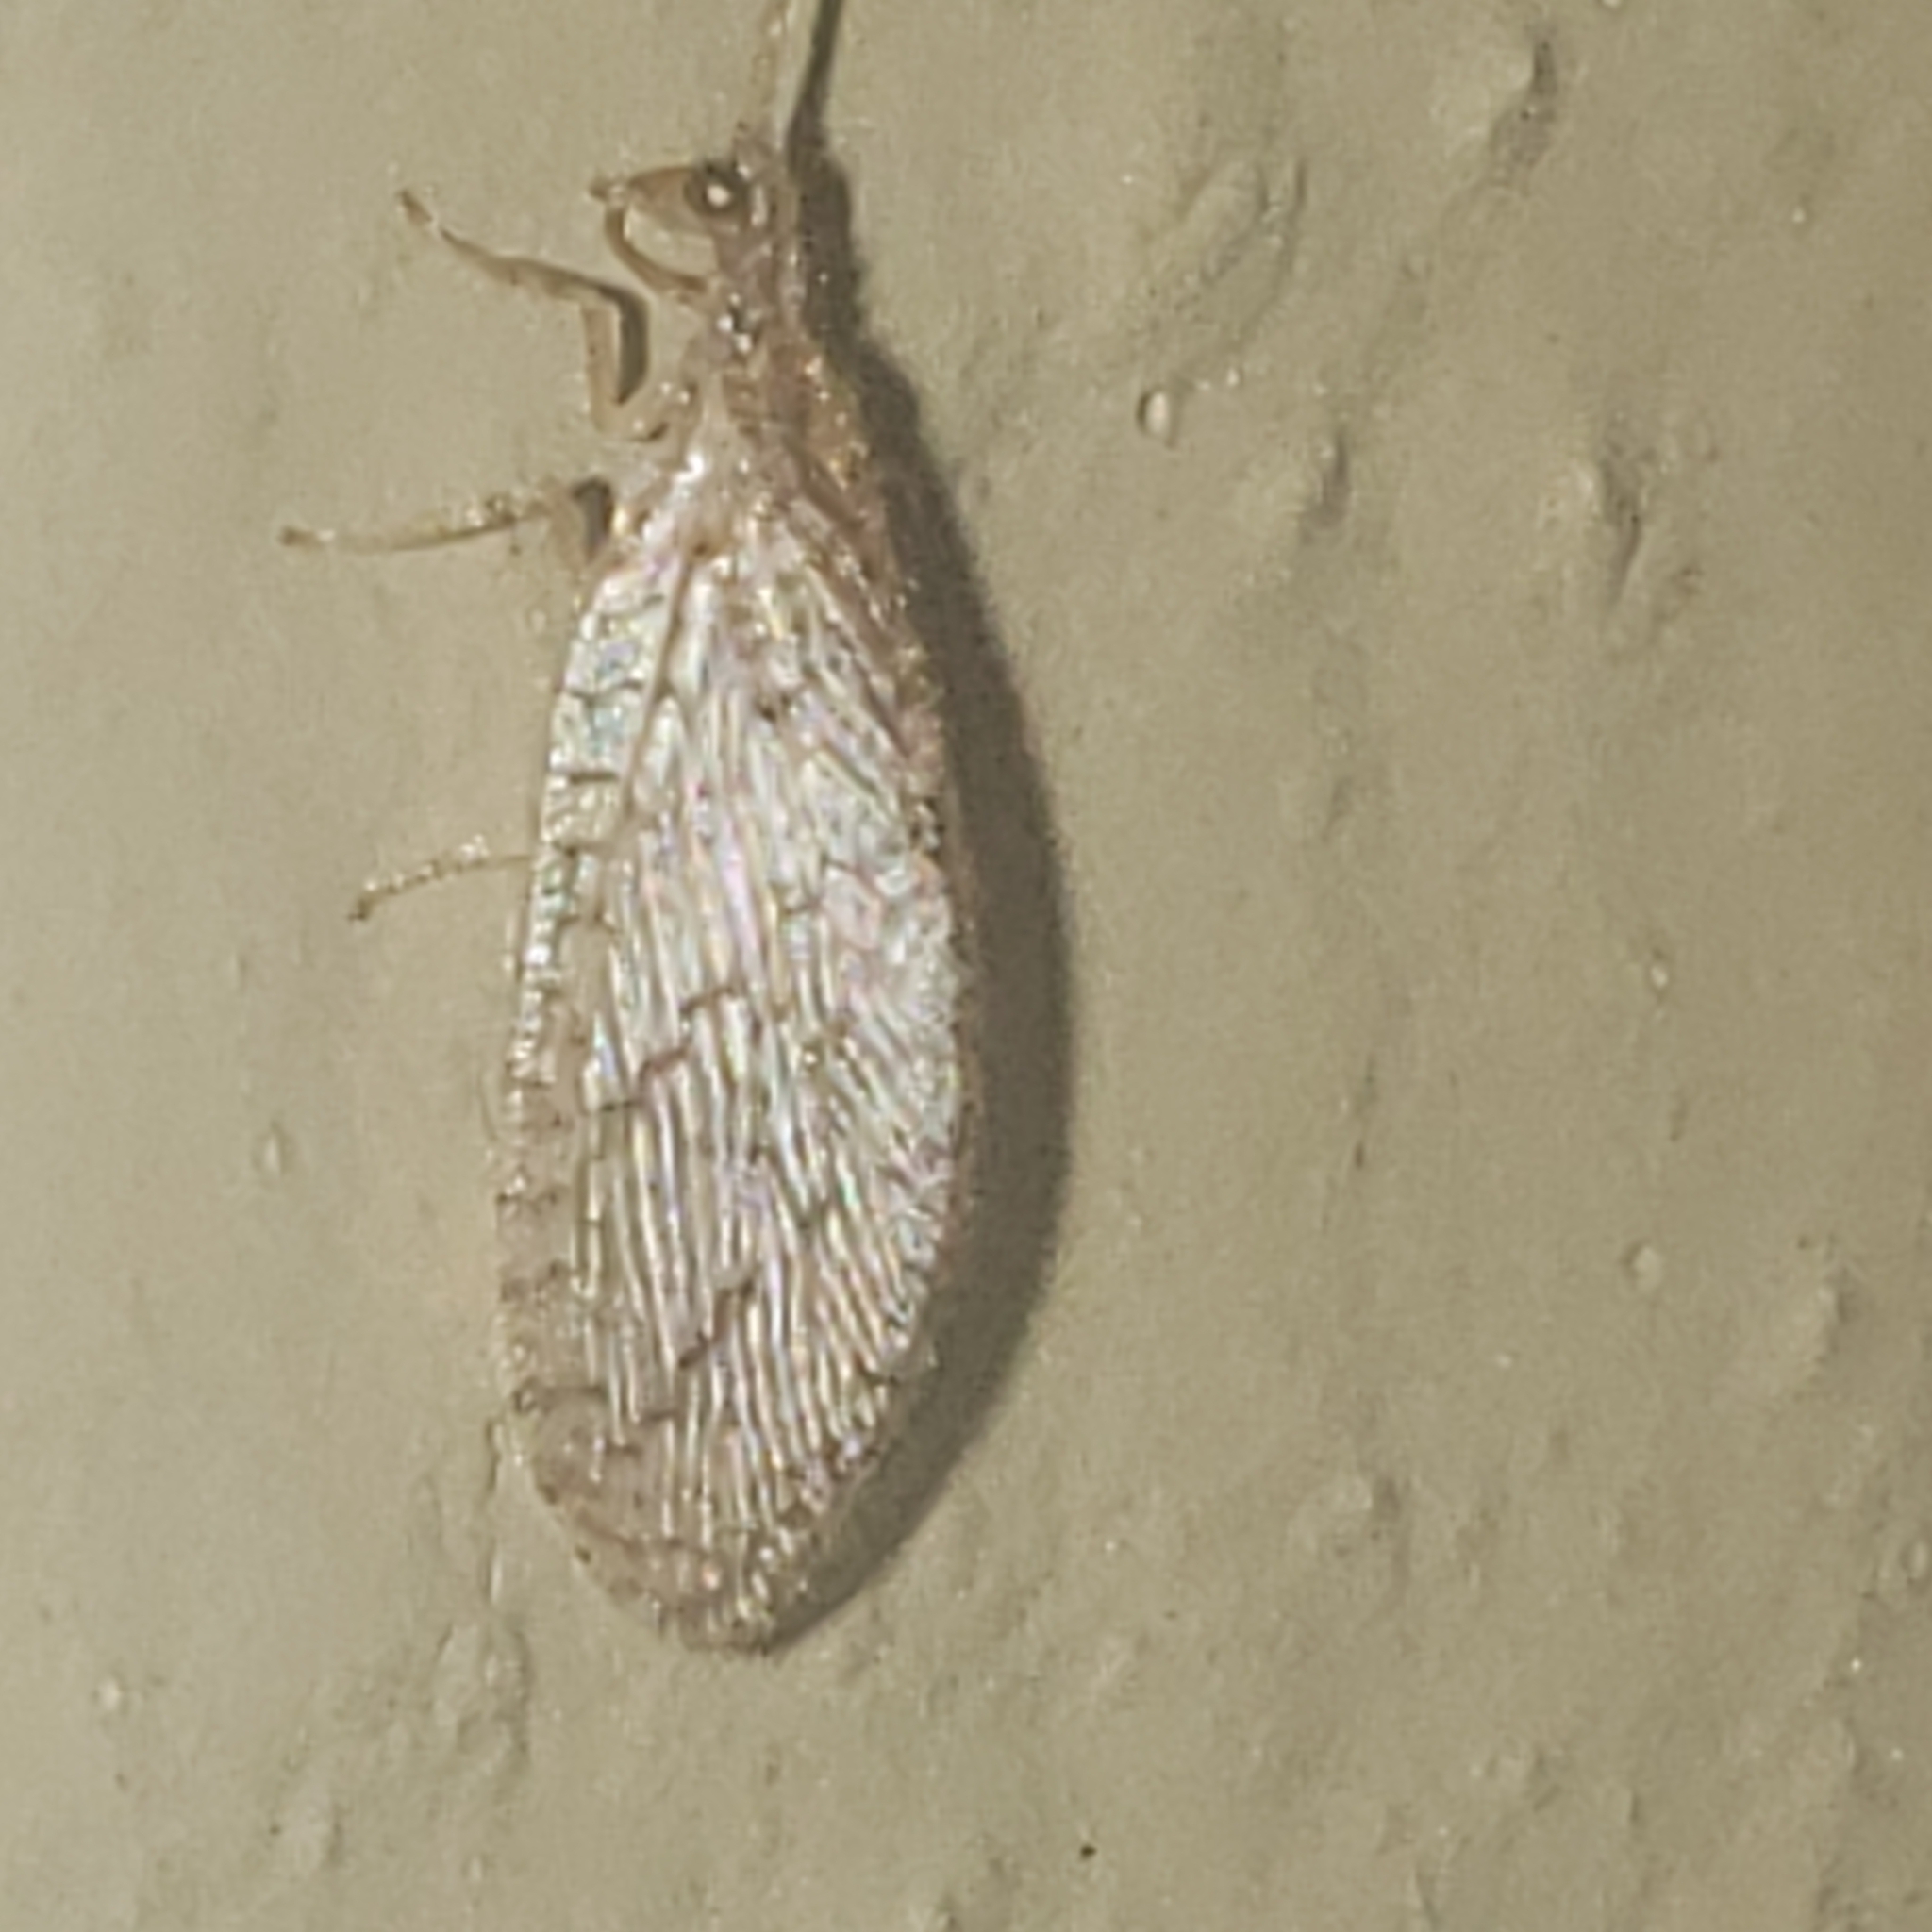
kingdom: Animalia
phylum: Arthropoda
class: Insecta
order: Neuroptera
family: Hemerobiidae
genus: Micromus
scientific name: Micromus posticus
